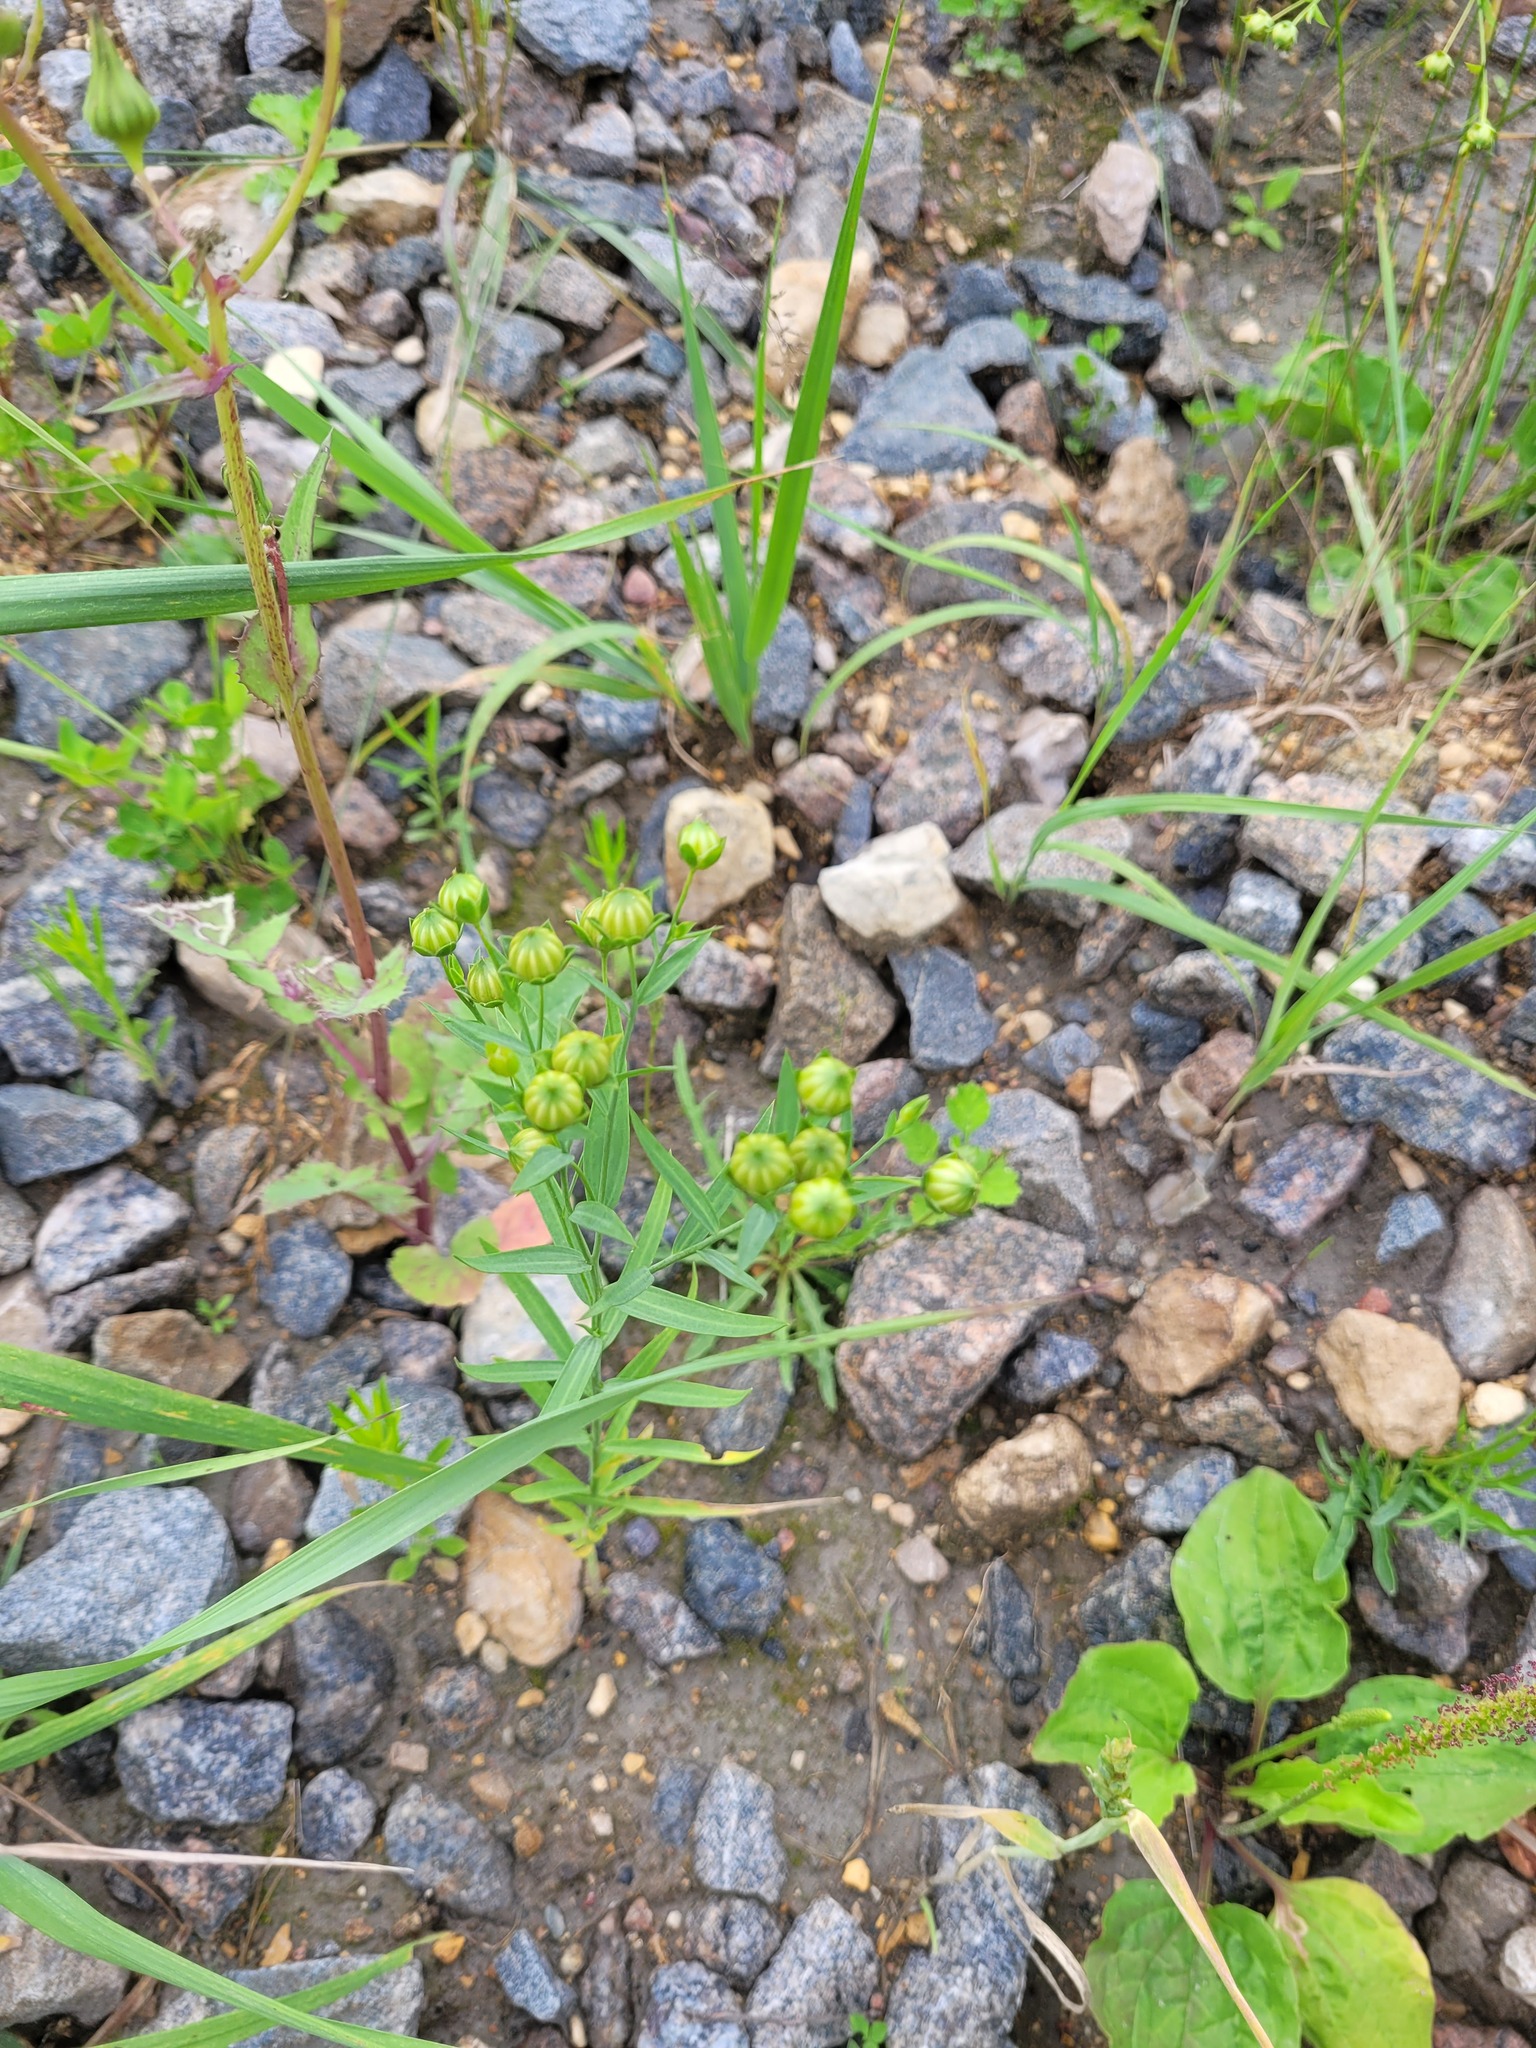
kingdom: Plantae
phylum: Tracheophyta
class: Magnoliopsida
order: Malpighiales
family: Linaceae
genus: Linum
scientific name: Linum usitatissimum
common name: Flax
